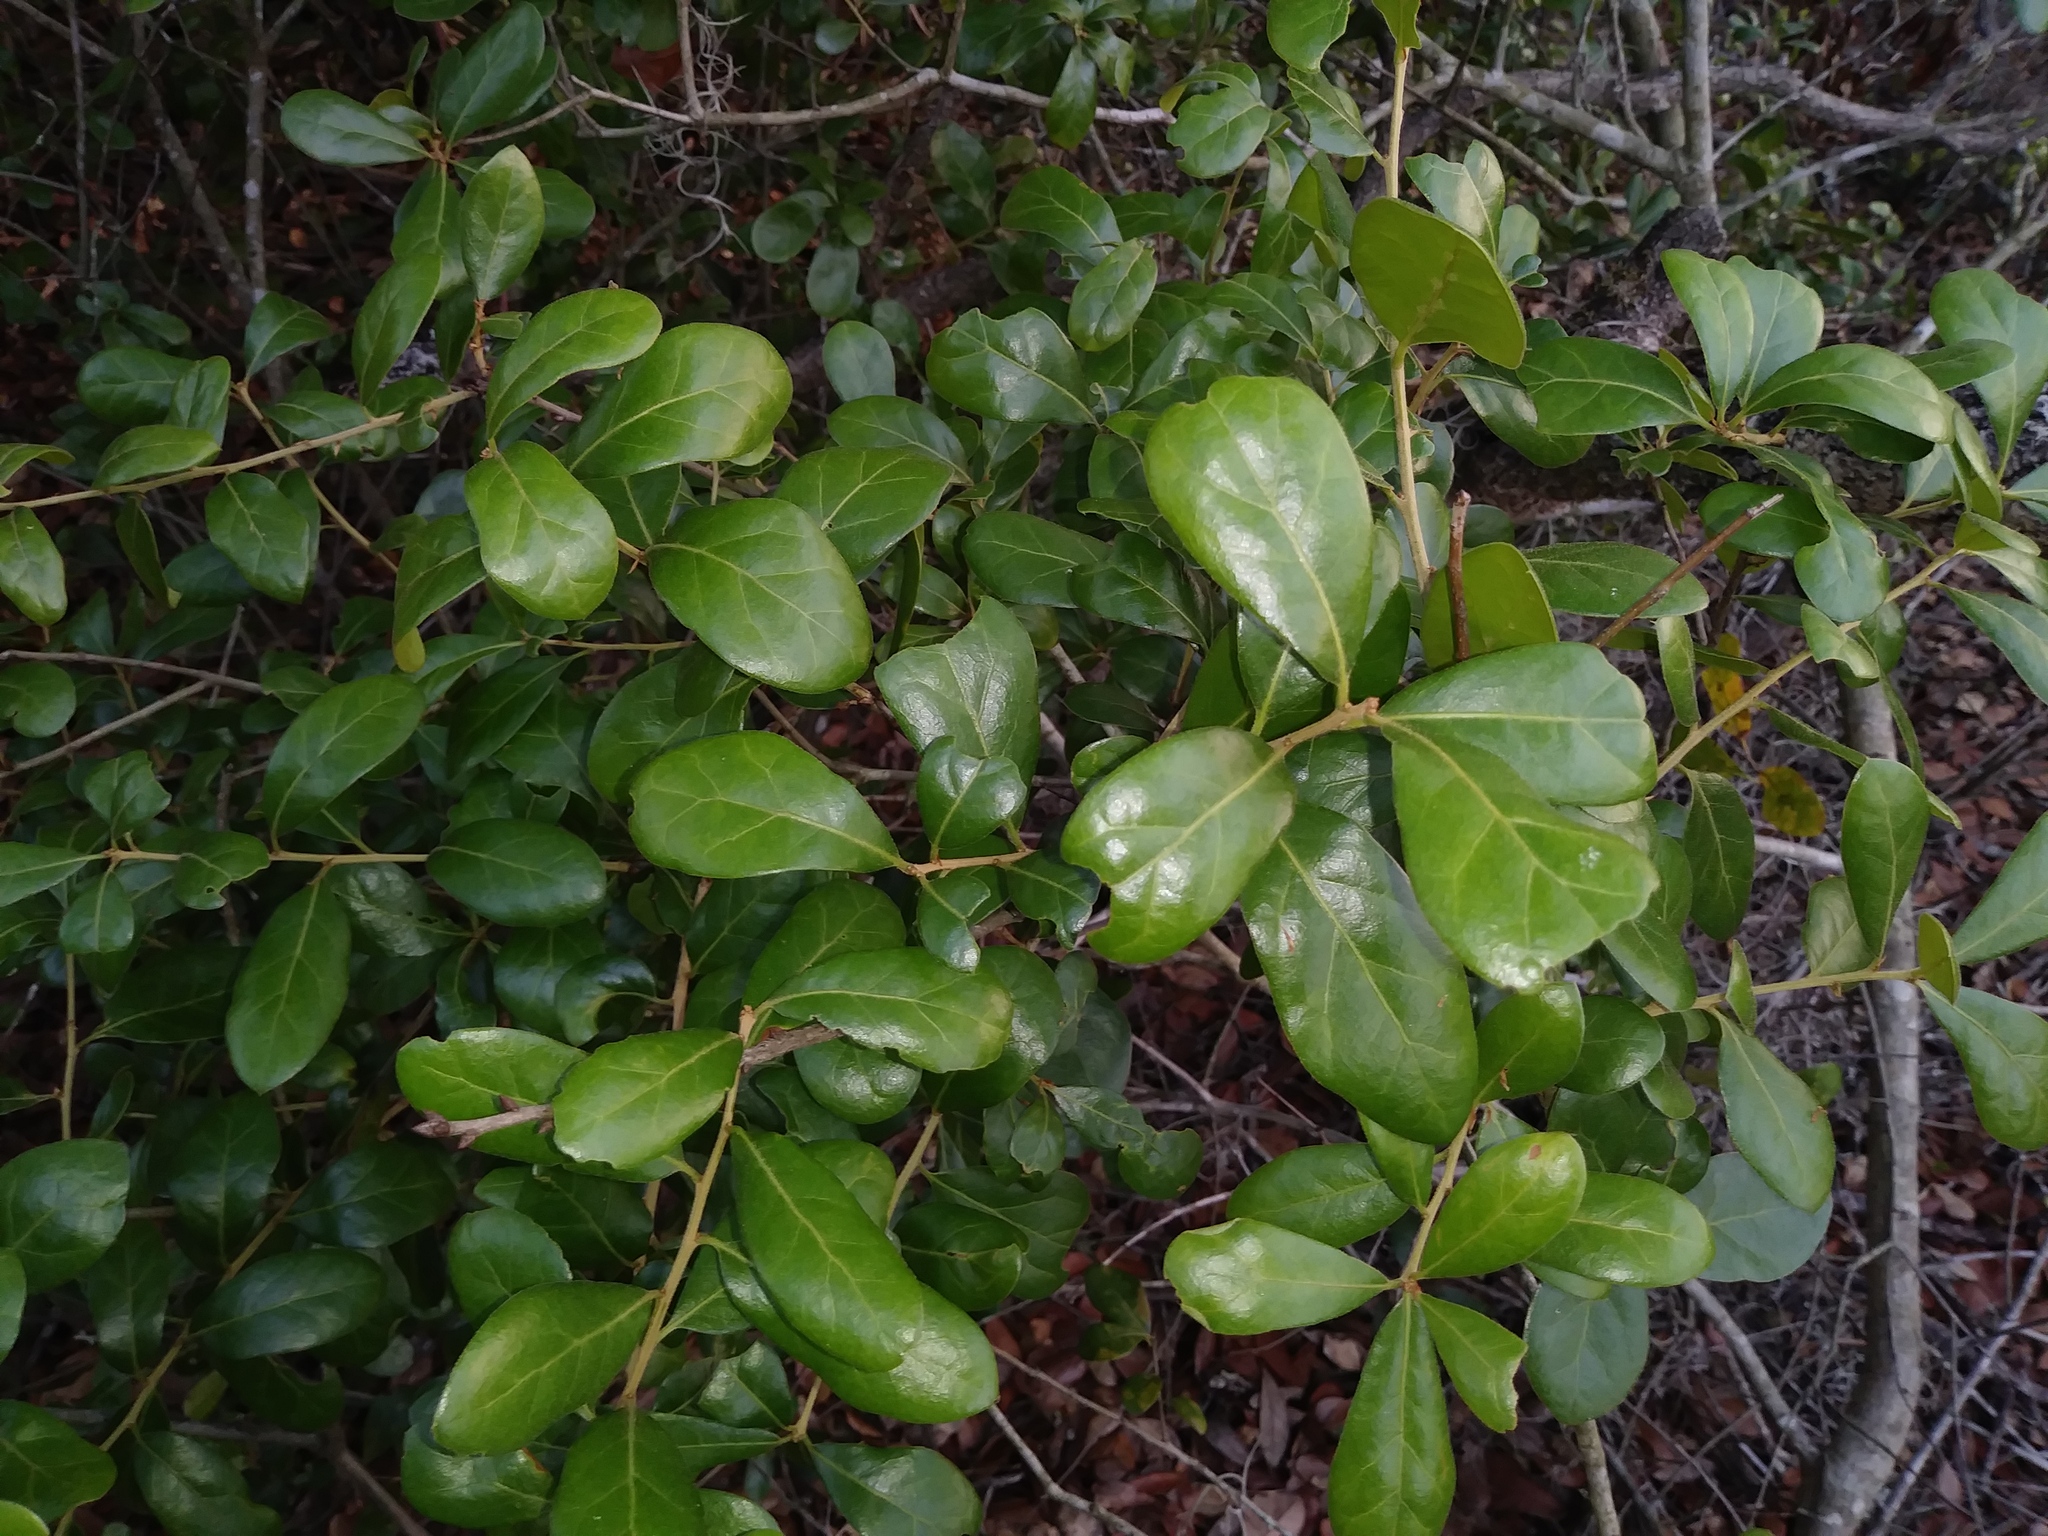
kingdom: Plantae
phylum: Tracheophyta
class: Magnoliopsida
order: Fagales
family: Fagaceae
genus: Quercus
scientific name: Quercus myrtifolia
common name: Myrtle oak
